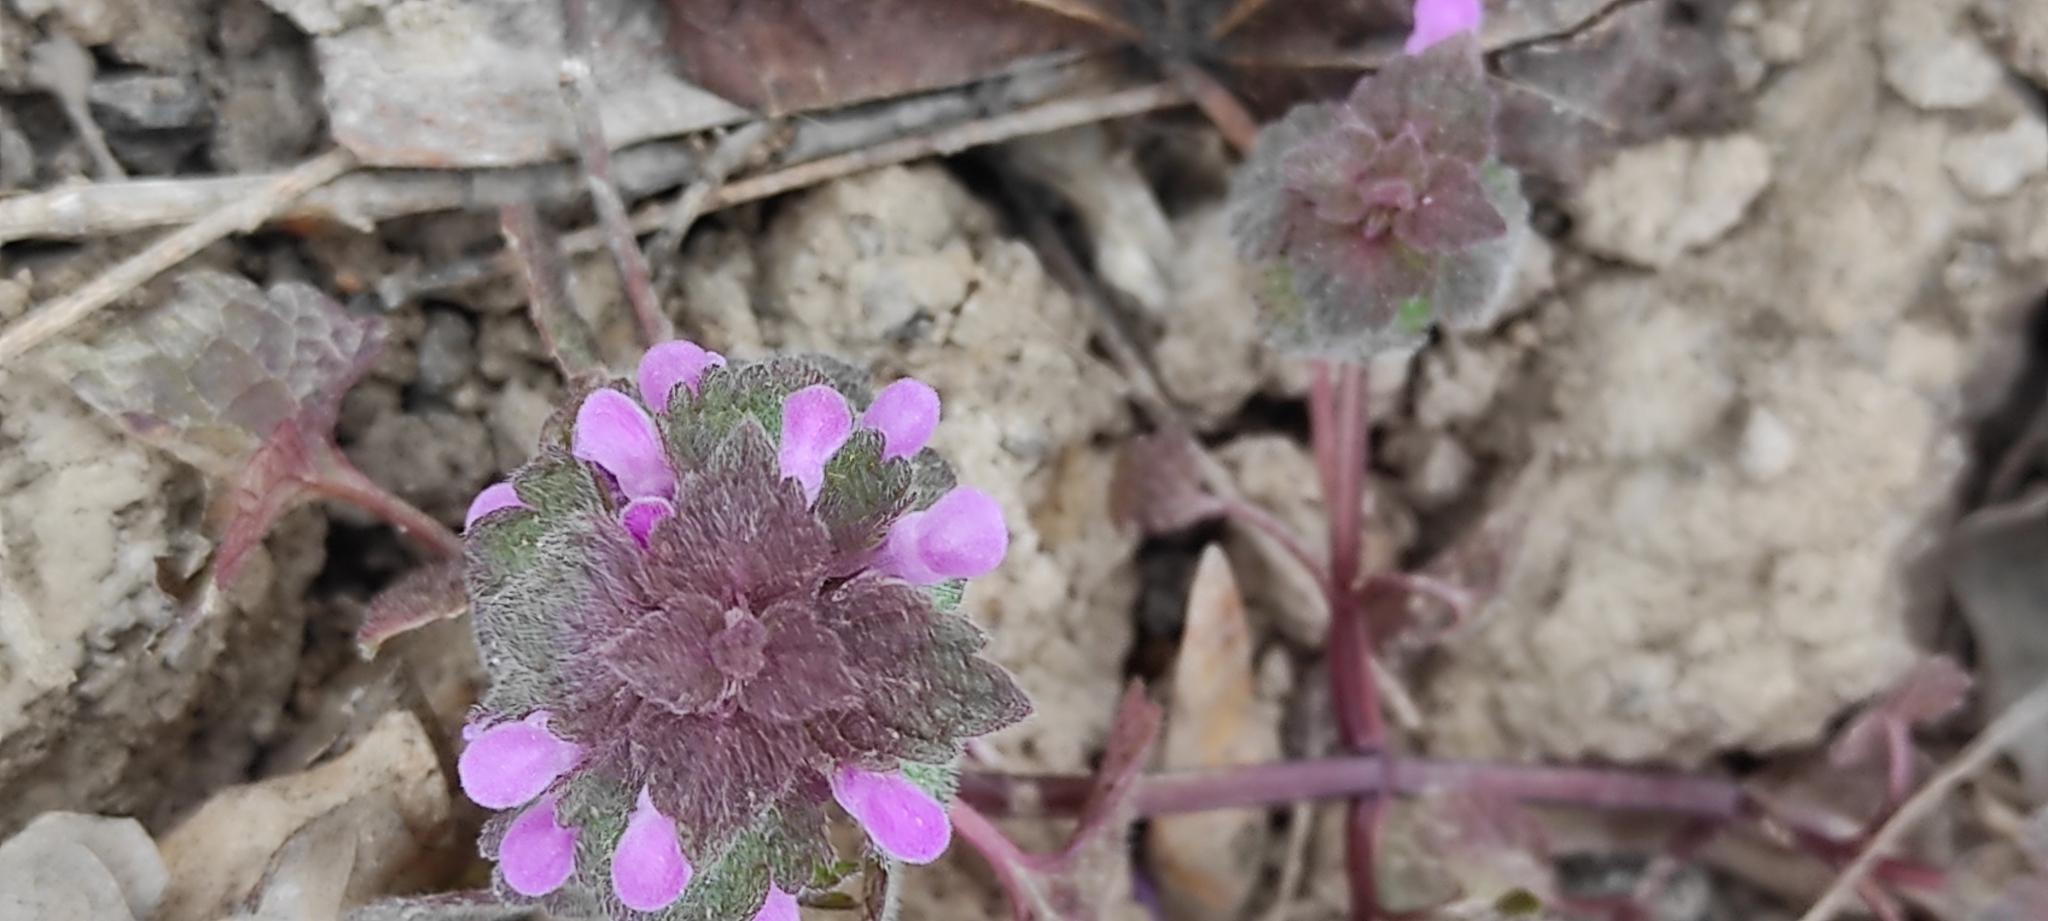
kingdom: Plantae
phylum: Tracheophyta
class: Magnoliopsida
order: Lamiales
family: Lamiaceae
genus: Lamium
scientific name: Lamium purpureum
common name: Red dead-nettle
